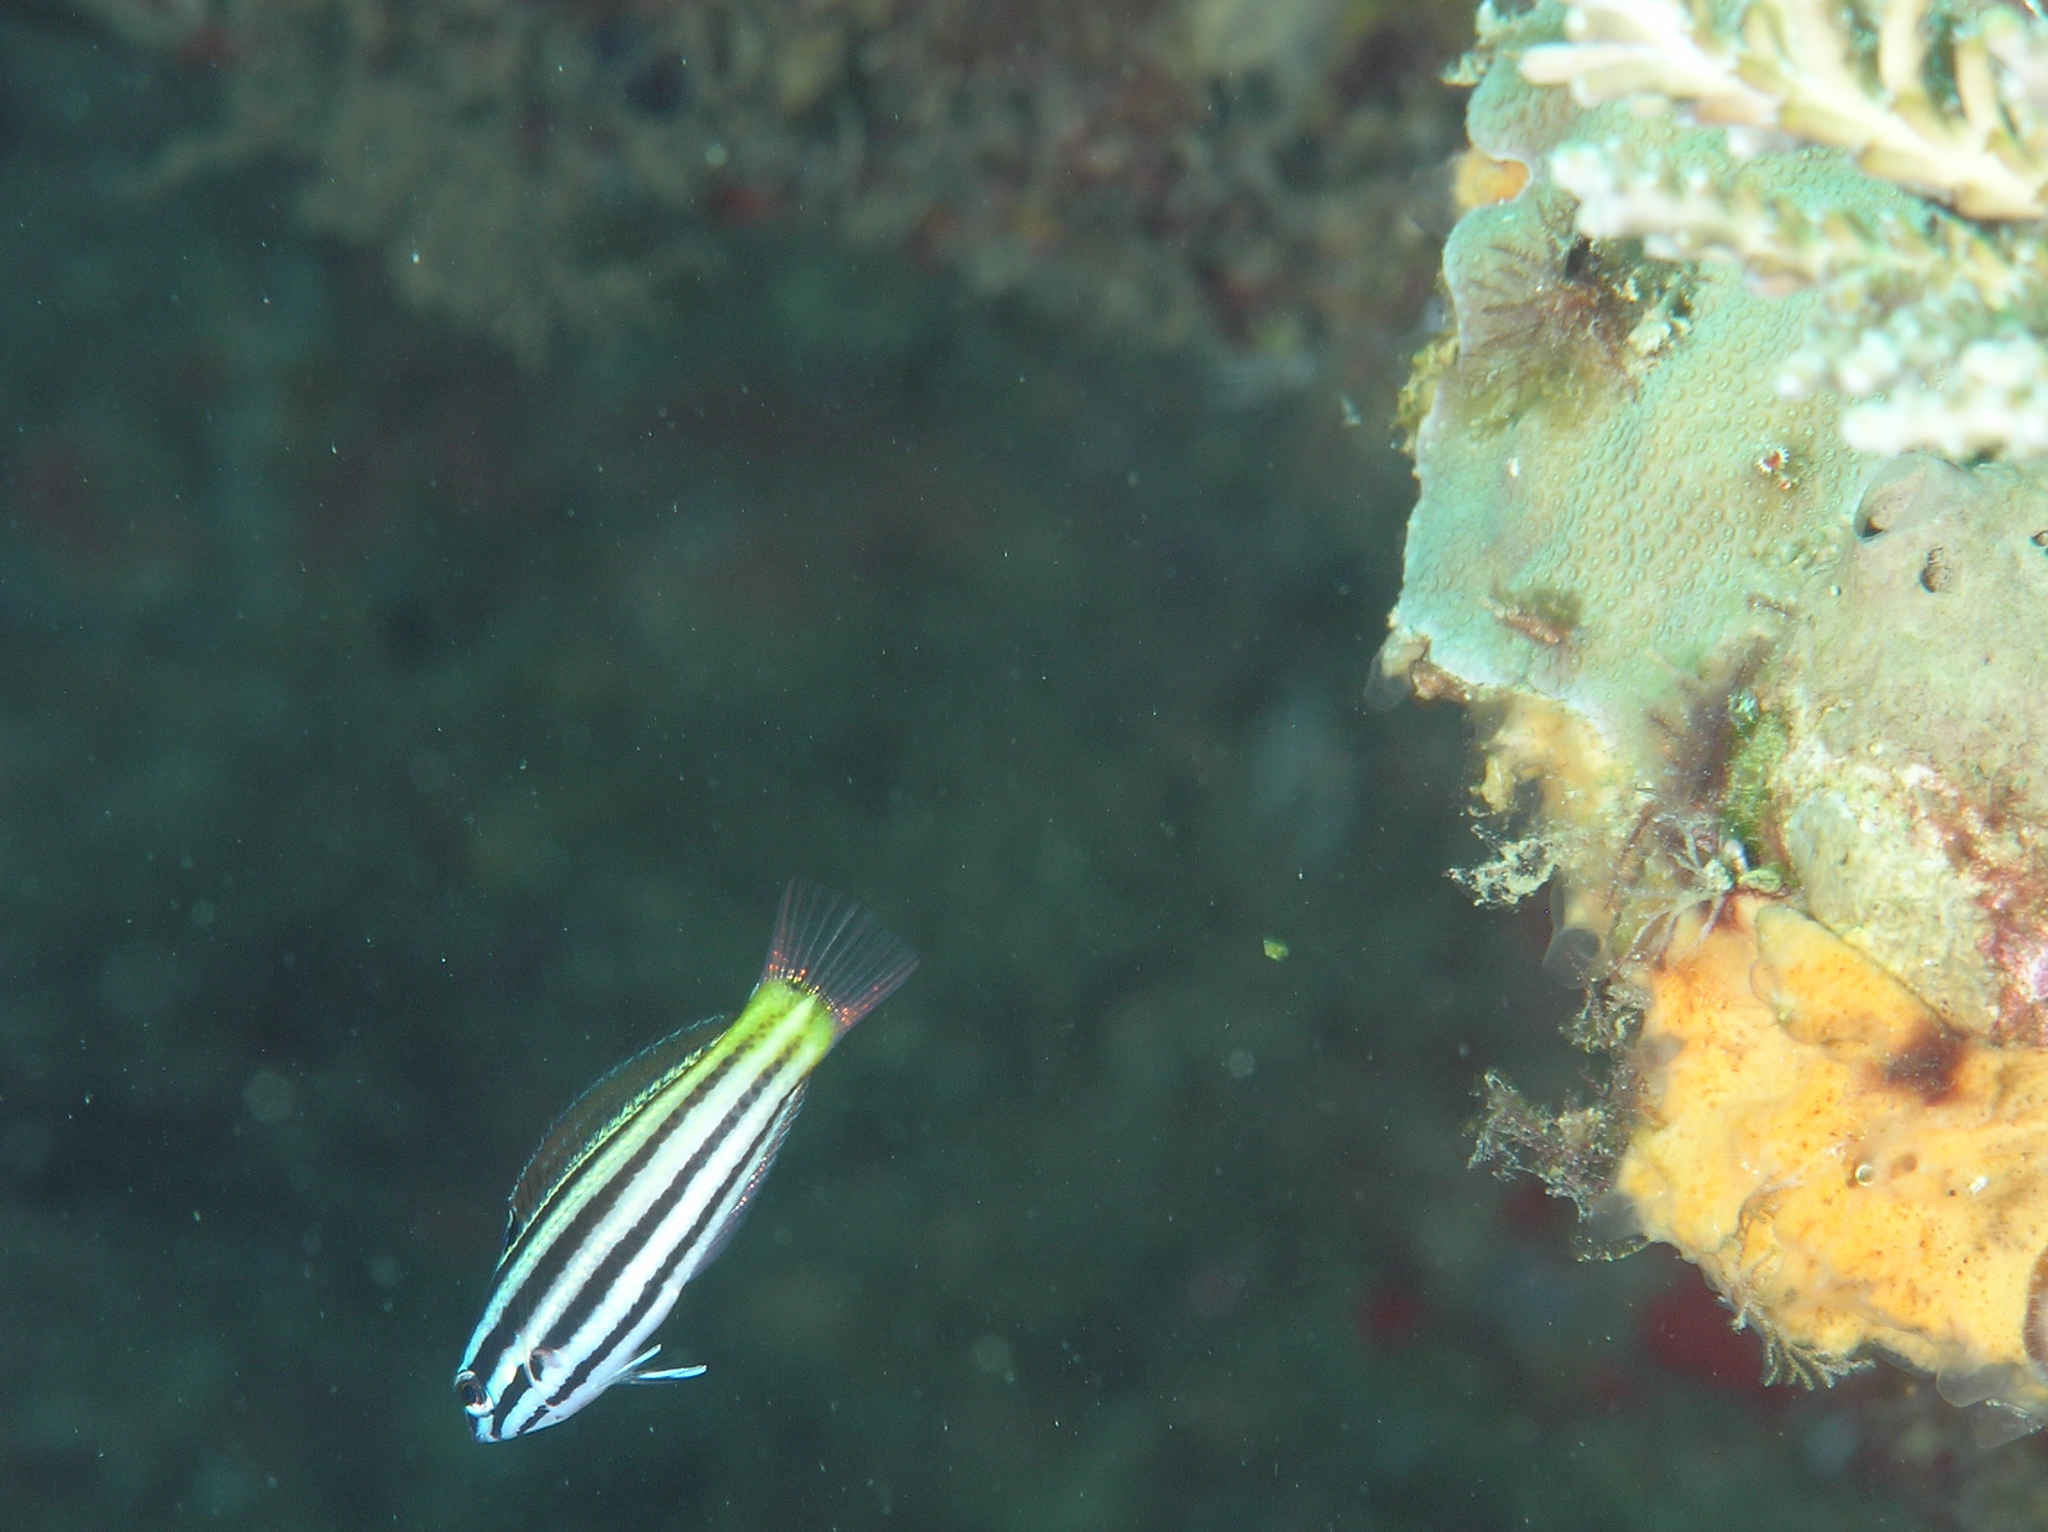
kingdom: Animalia
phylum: Chordata
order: Perciformes
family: Labridae
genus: Halichoeres
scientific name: Halichoeres prosopeion
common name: Half-grey wrasse
